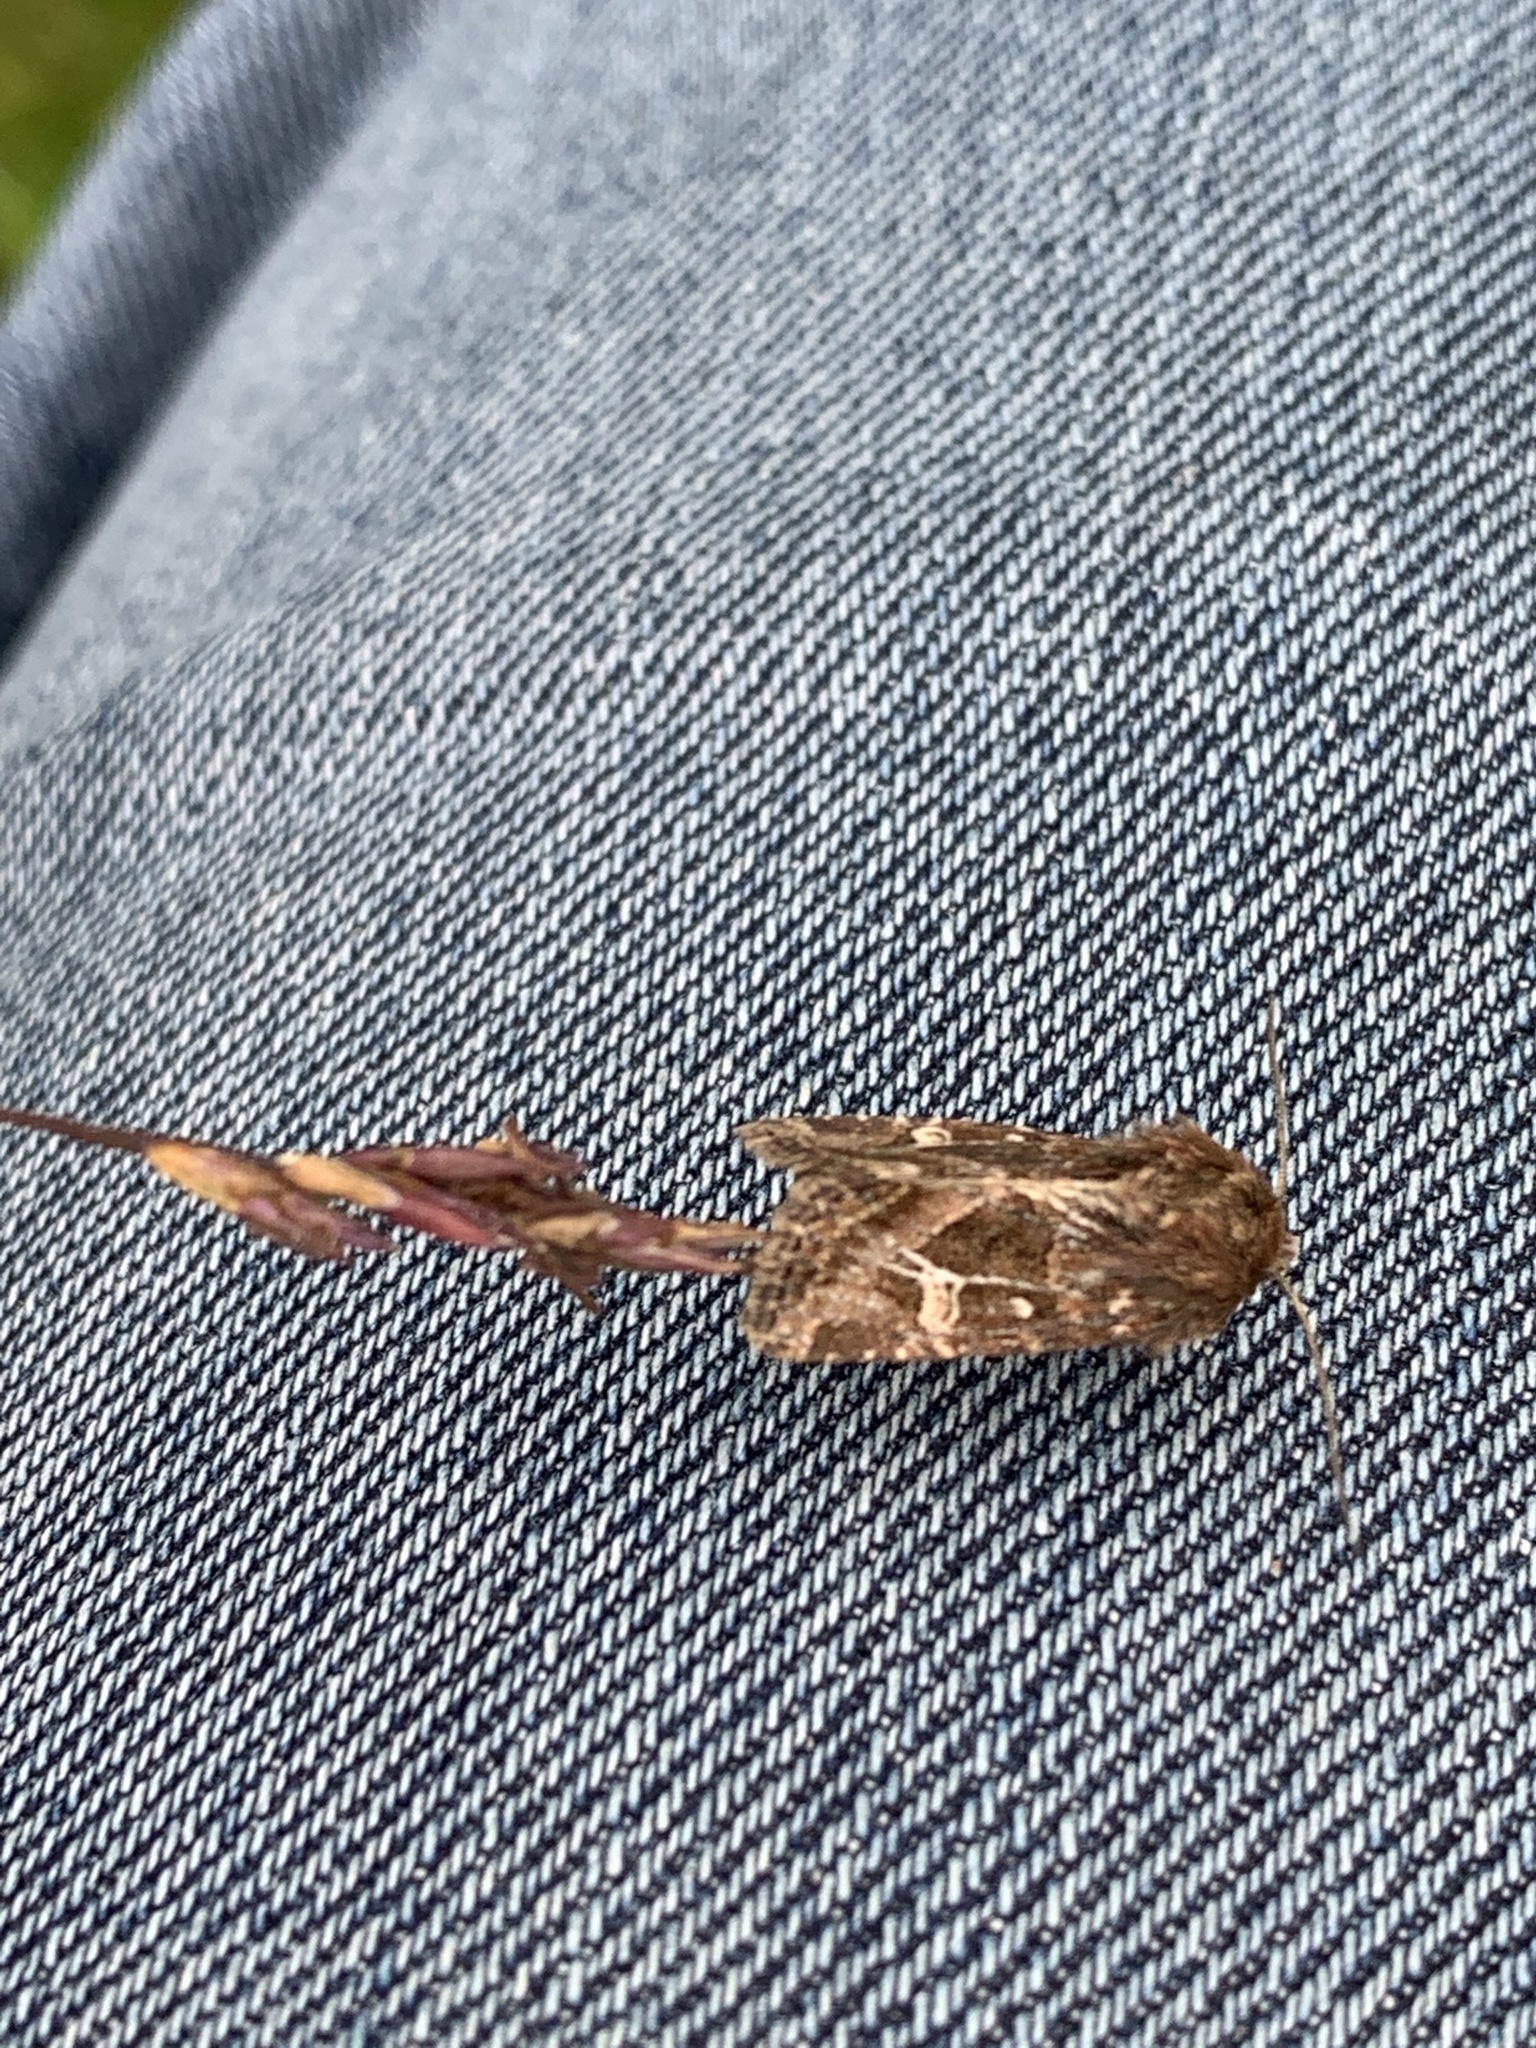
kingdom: Animalia
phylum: Arthropoda
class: Insecta
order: Lepidoptera
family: Noctuidae
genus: Celaena
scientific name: Celaena haworthii
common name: Haworth's minor
